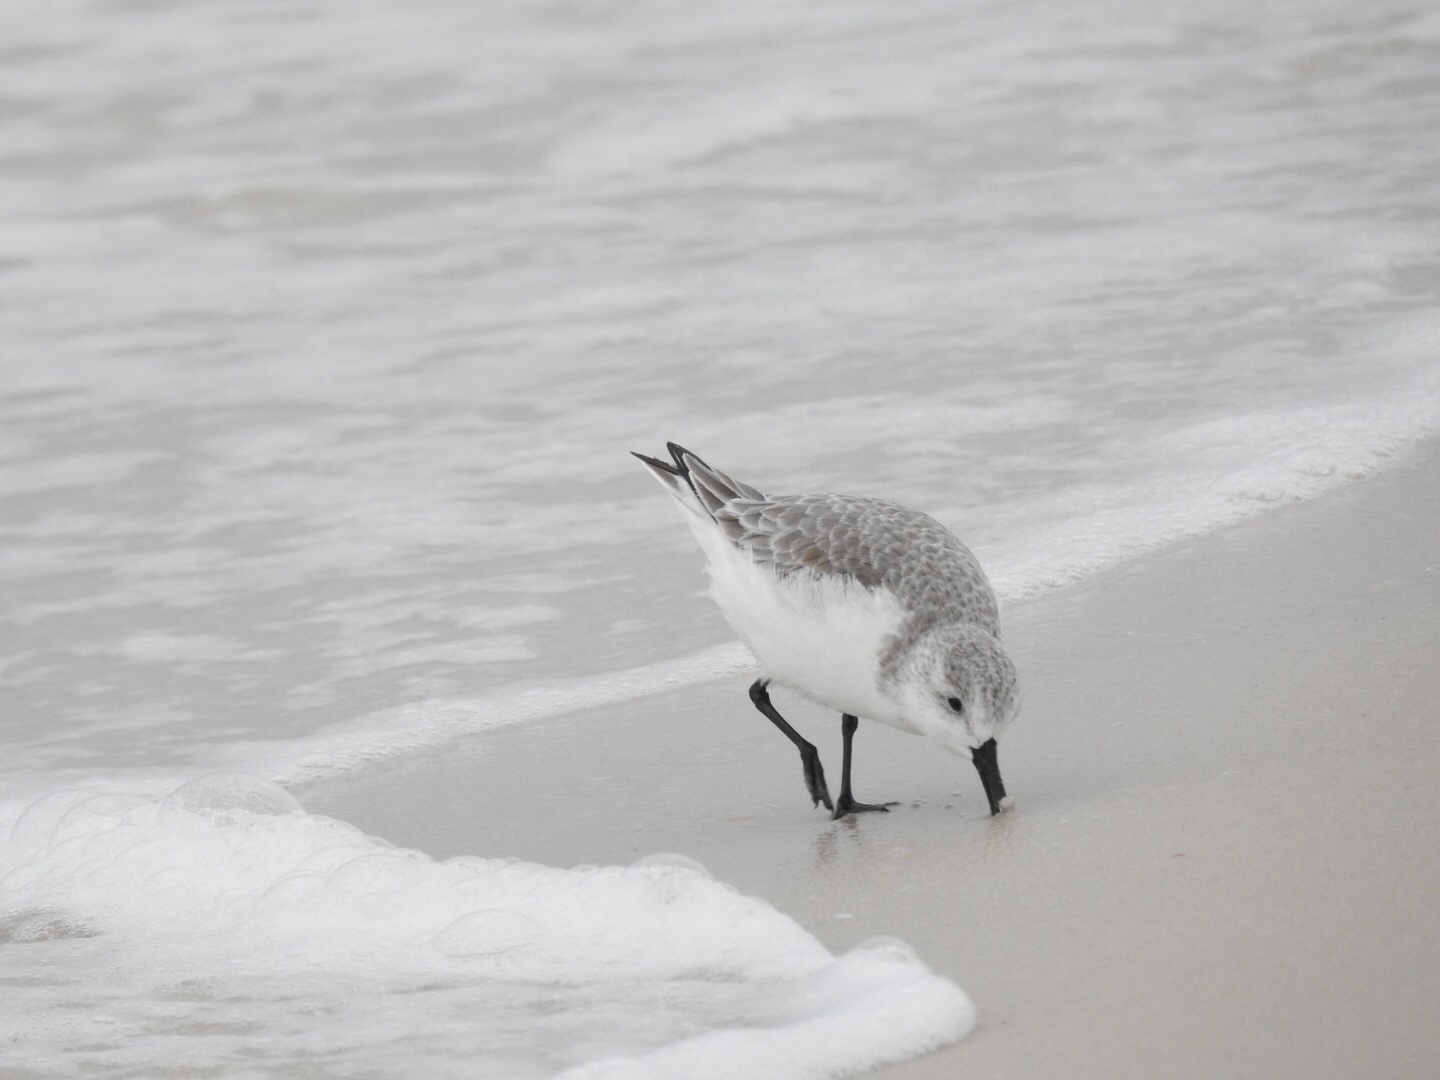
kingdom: Animalia
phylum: Chordata
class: Aves
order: Charadriiformes
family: Scolopacidae
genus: Calidris
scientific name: Calidris alba
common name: Sanderling
